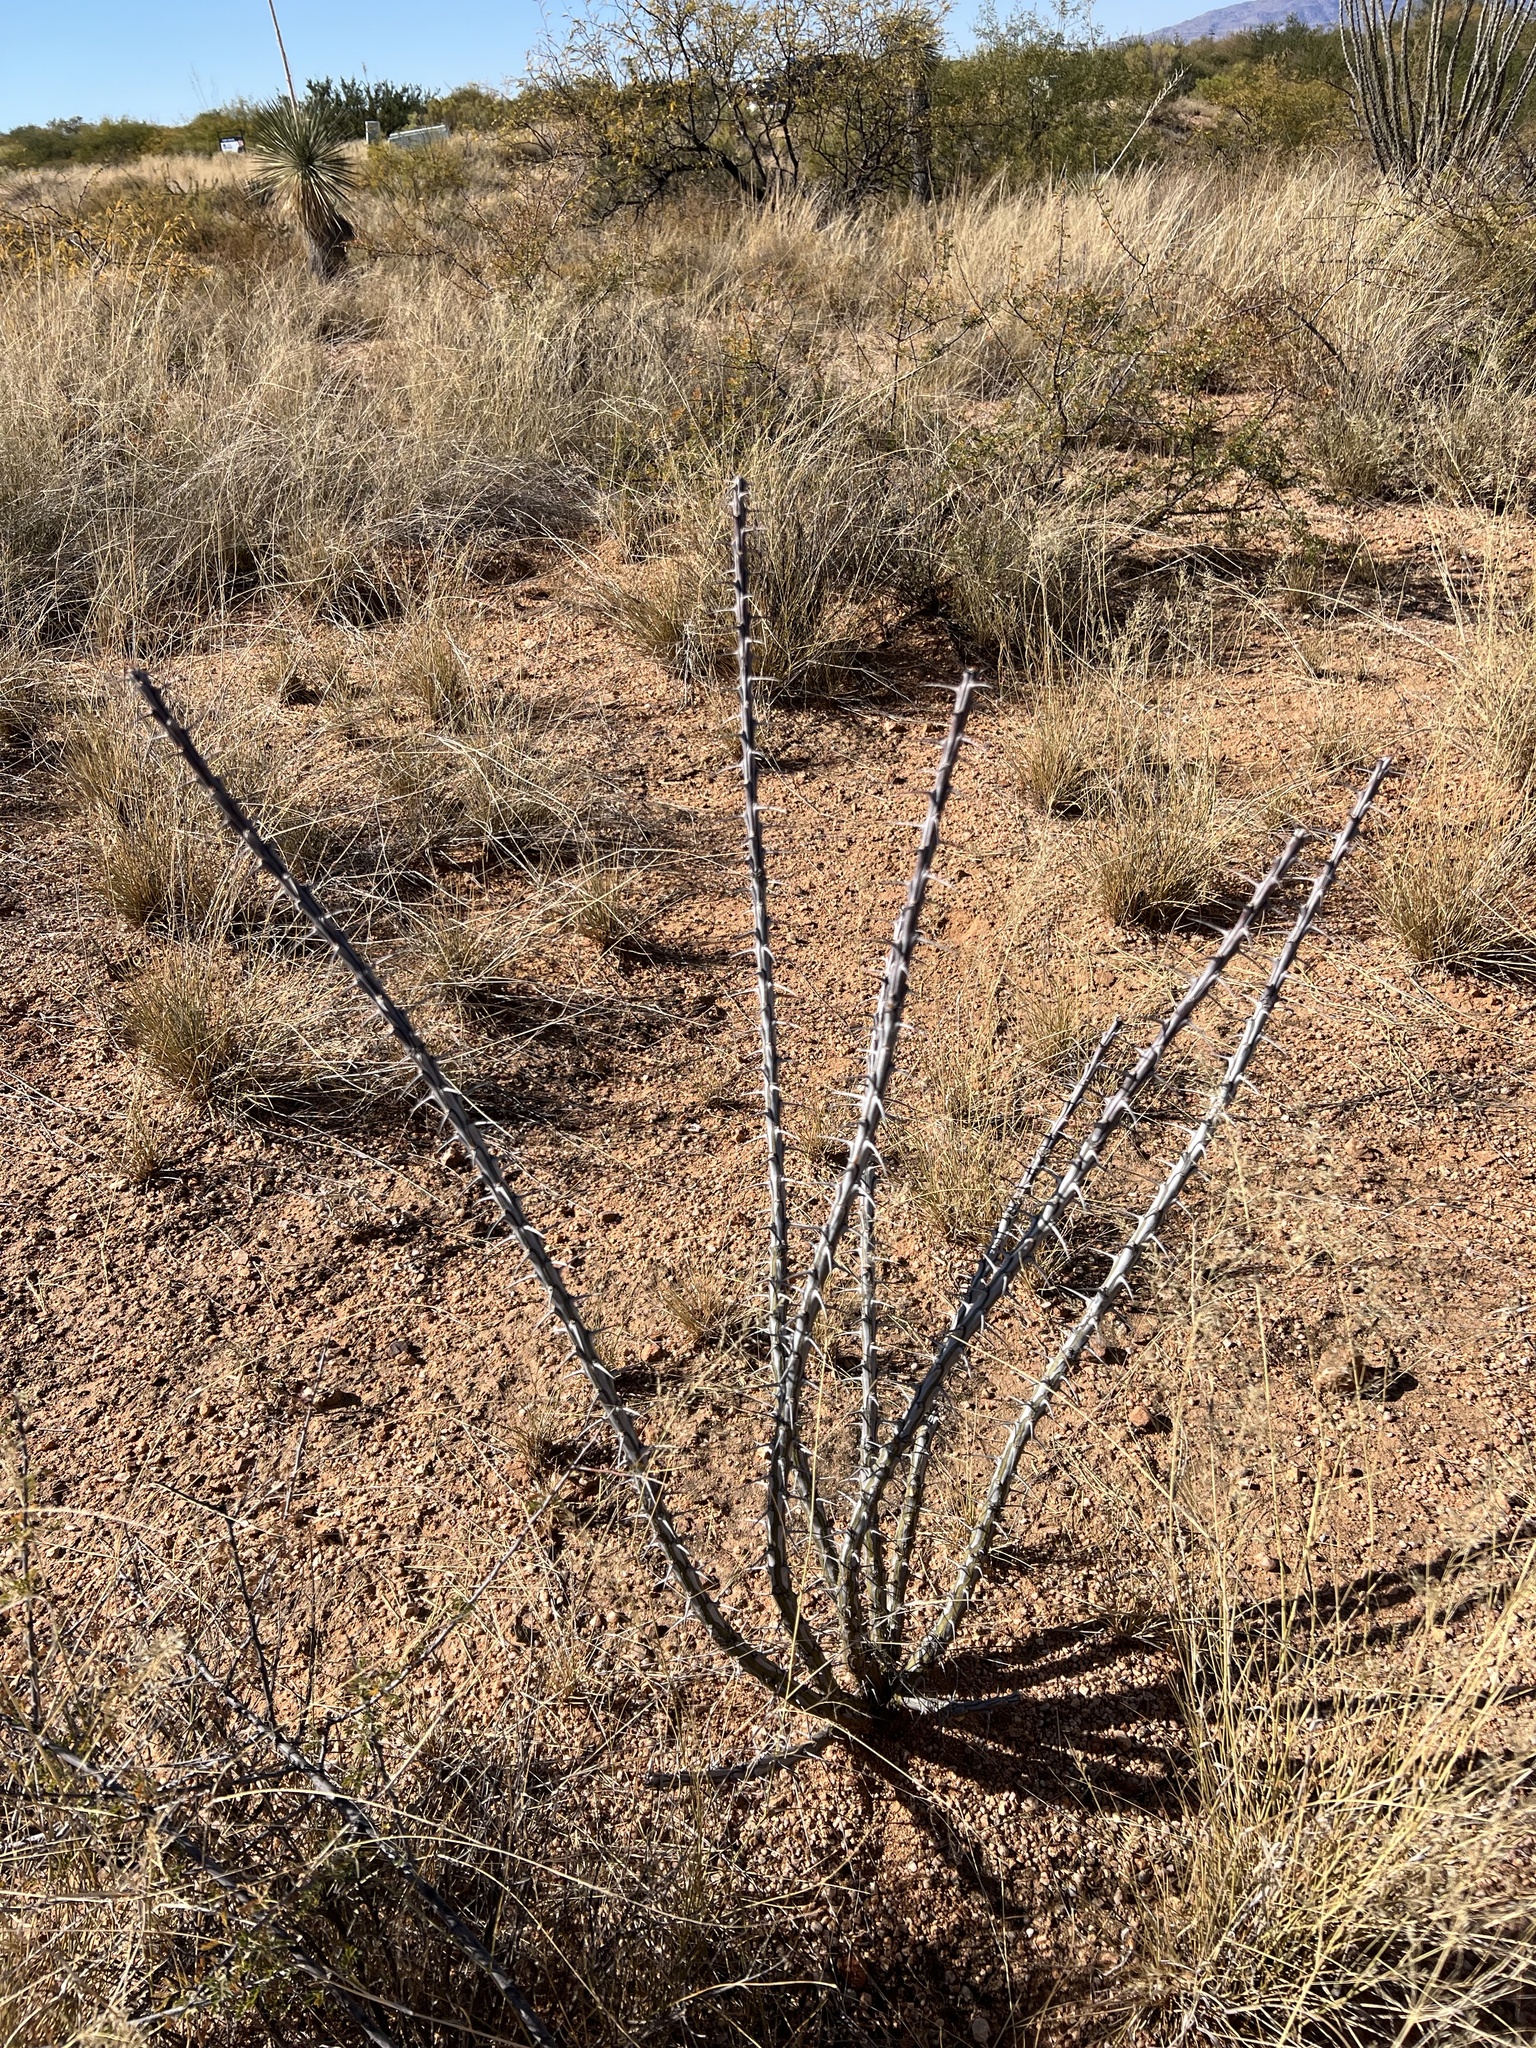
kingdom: Plantae
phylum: Tracheophyta
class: Magnoliopsida
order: Ericales
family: Fouquieriaceae
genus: Fouquieria
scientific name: Fouquieria splendens
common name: Vine-cactus
